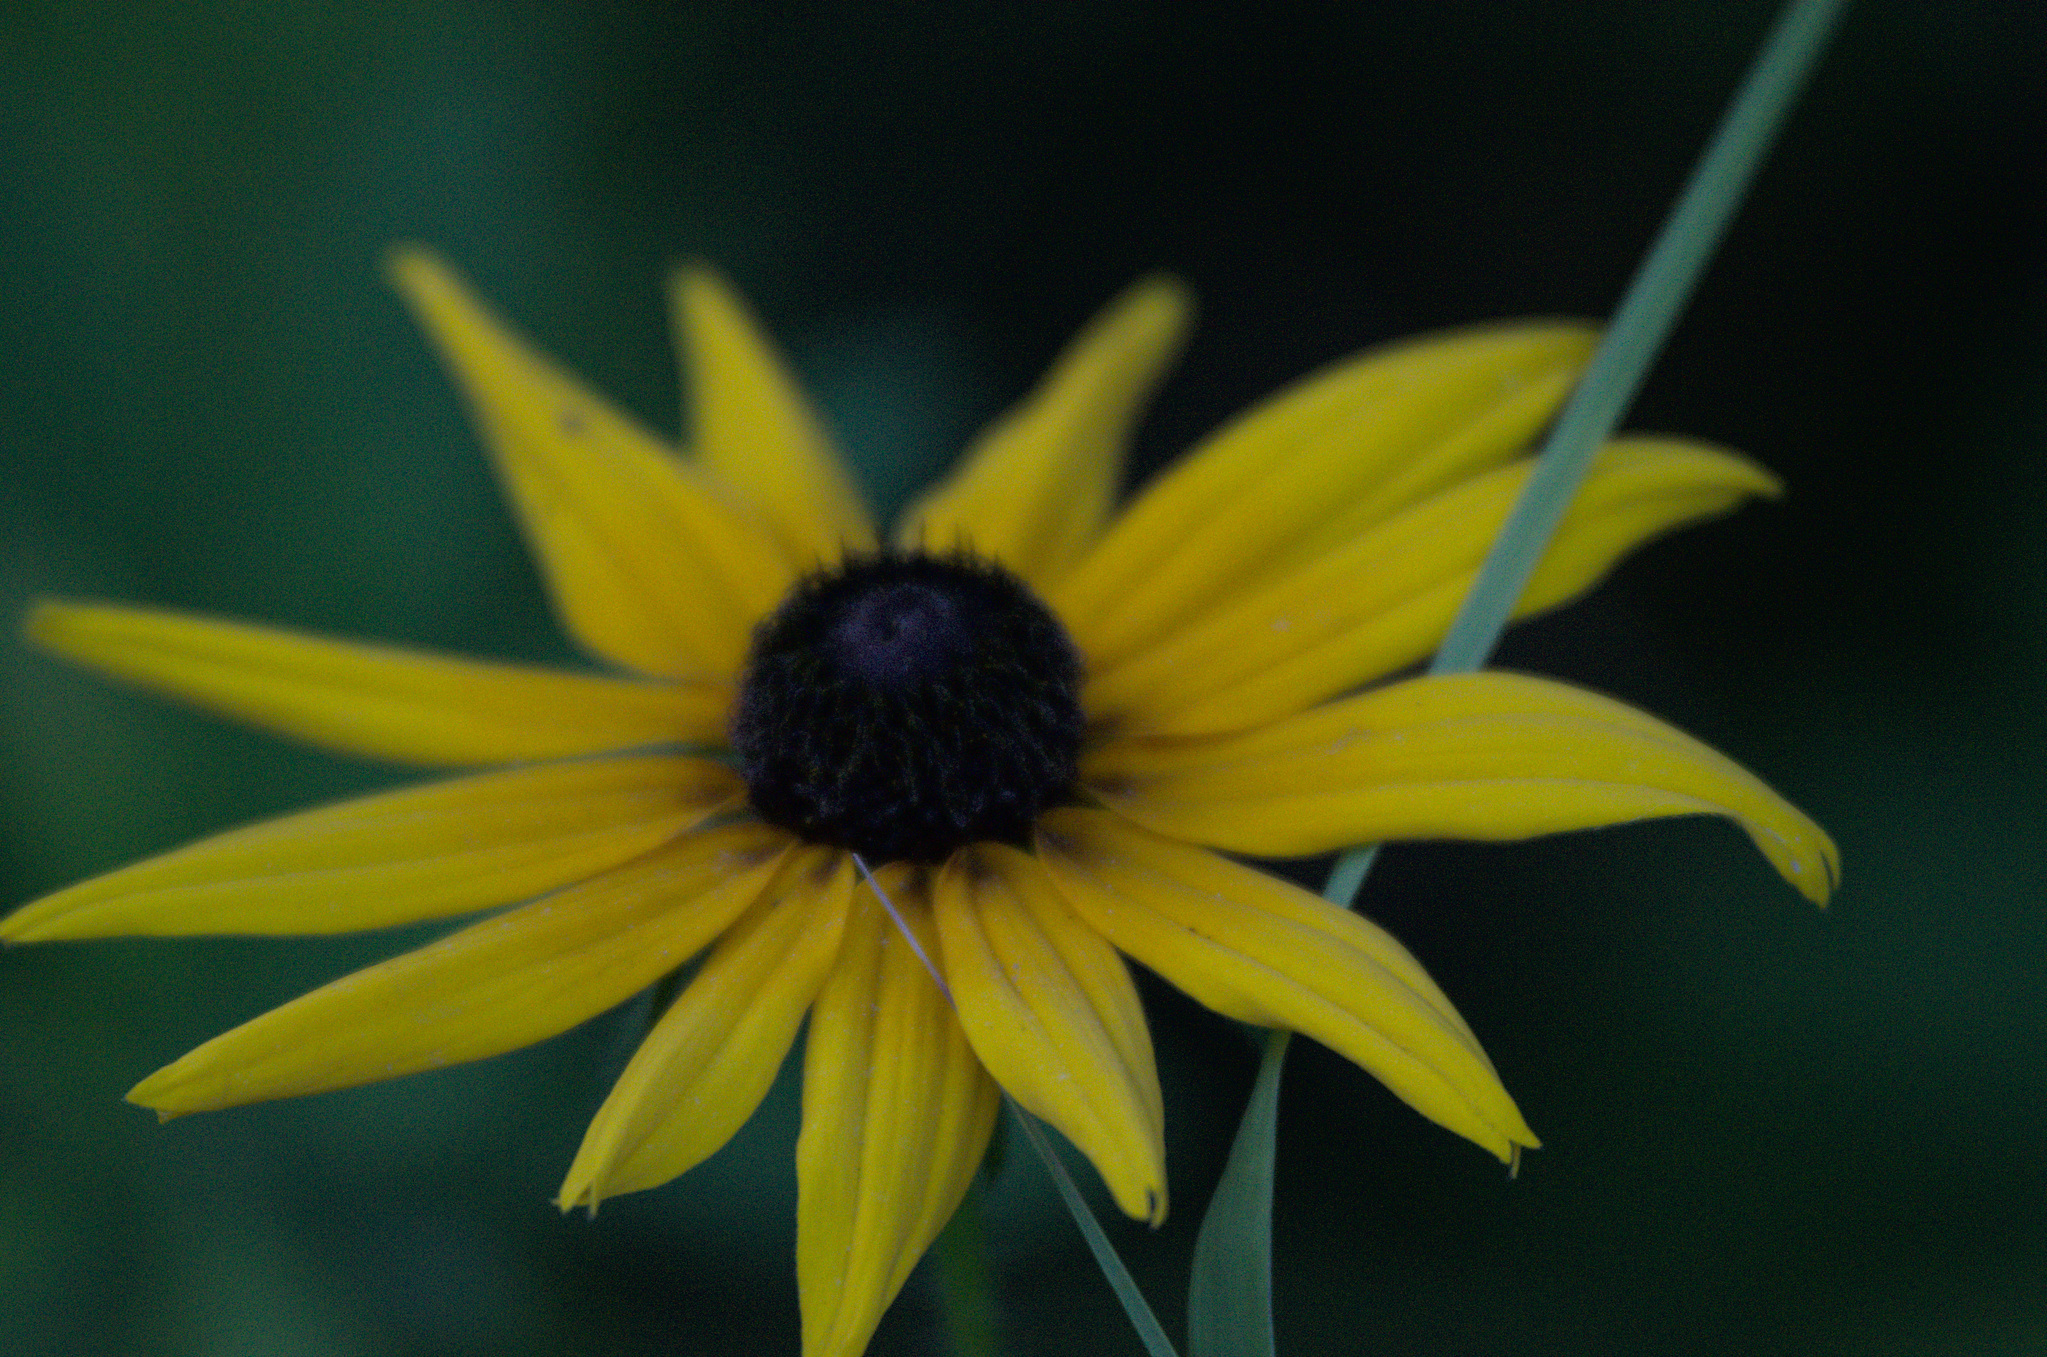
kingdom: Plantae
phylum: Tracheophyta
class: Magnoliopsida
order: Asterales
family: Asteraceae
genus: Rudbeckia
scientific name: Rudbeckia hirta
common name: Black-eyed-susan
